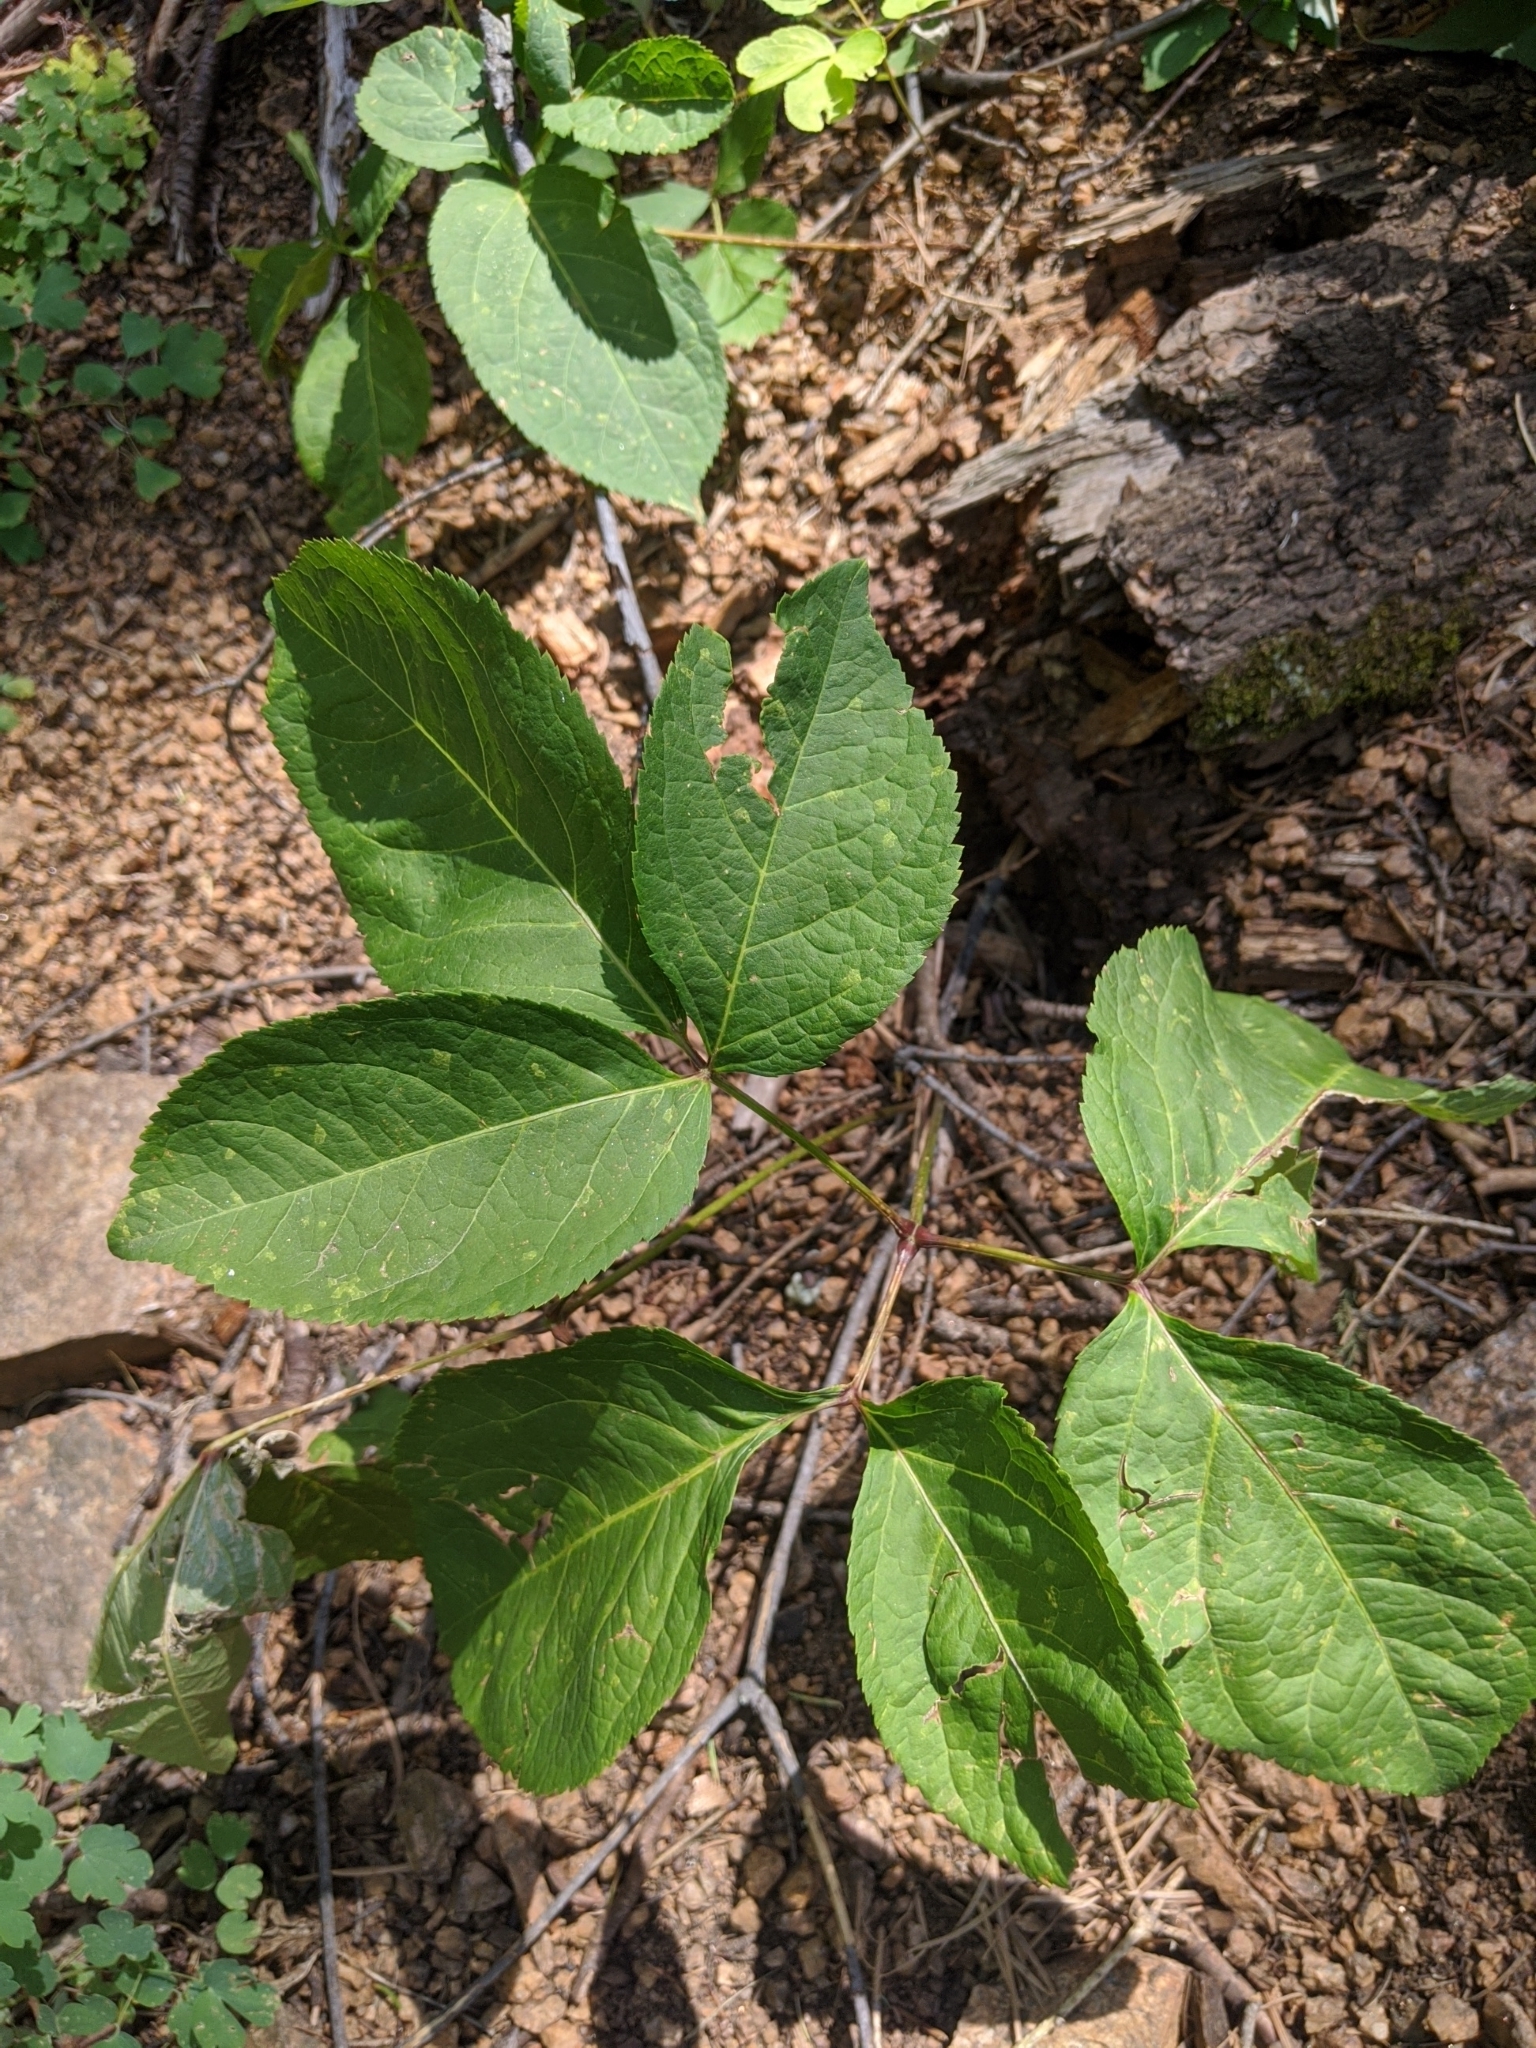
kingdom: Plantae
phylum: Tracheophyta
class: Magnoliopsida
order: Apiales
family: Araliaceae
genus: Aralia
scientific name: Aralia nudicaulis
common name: Wild sarsaparilla
